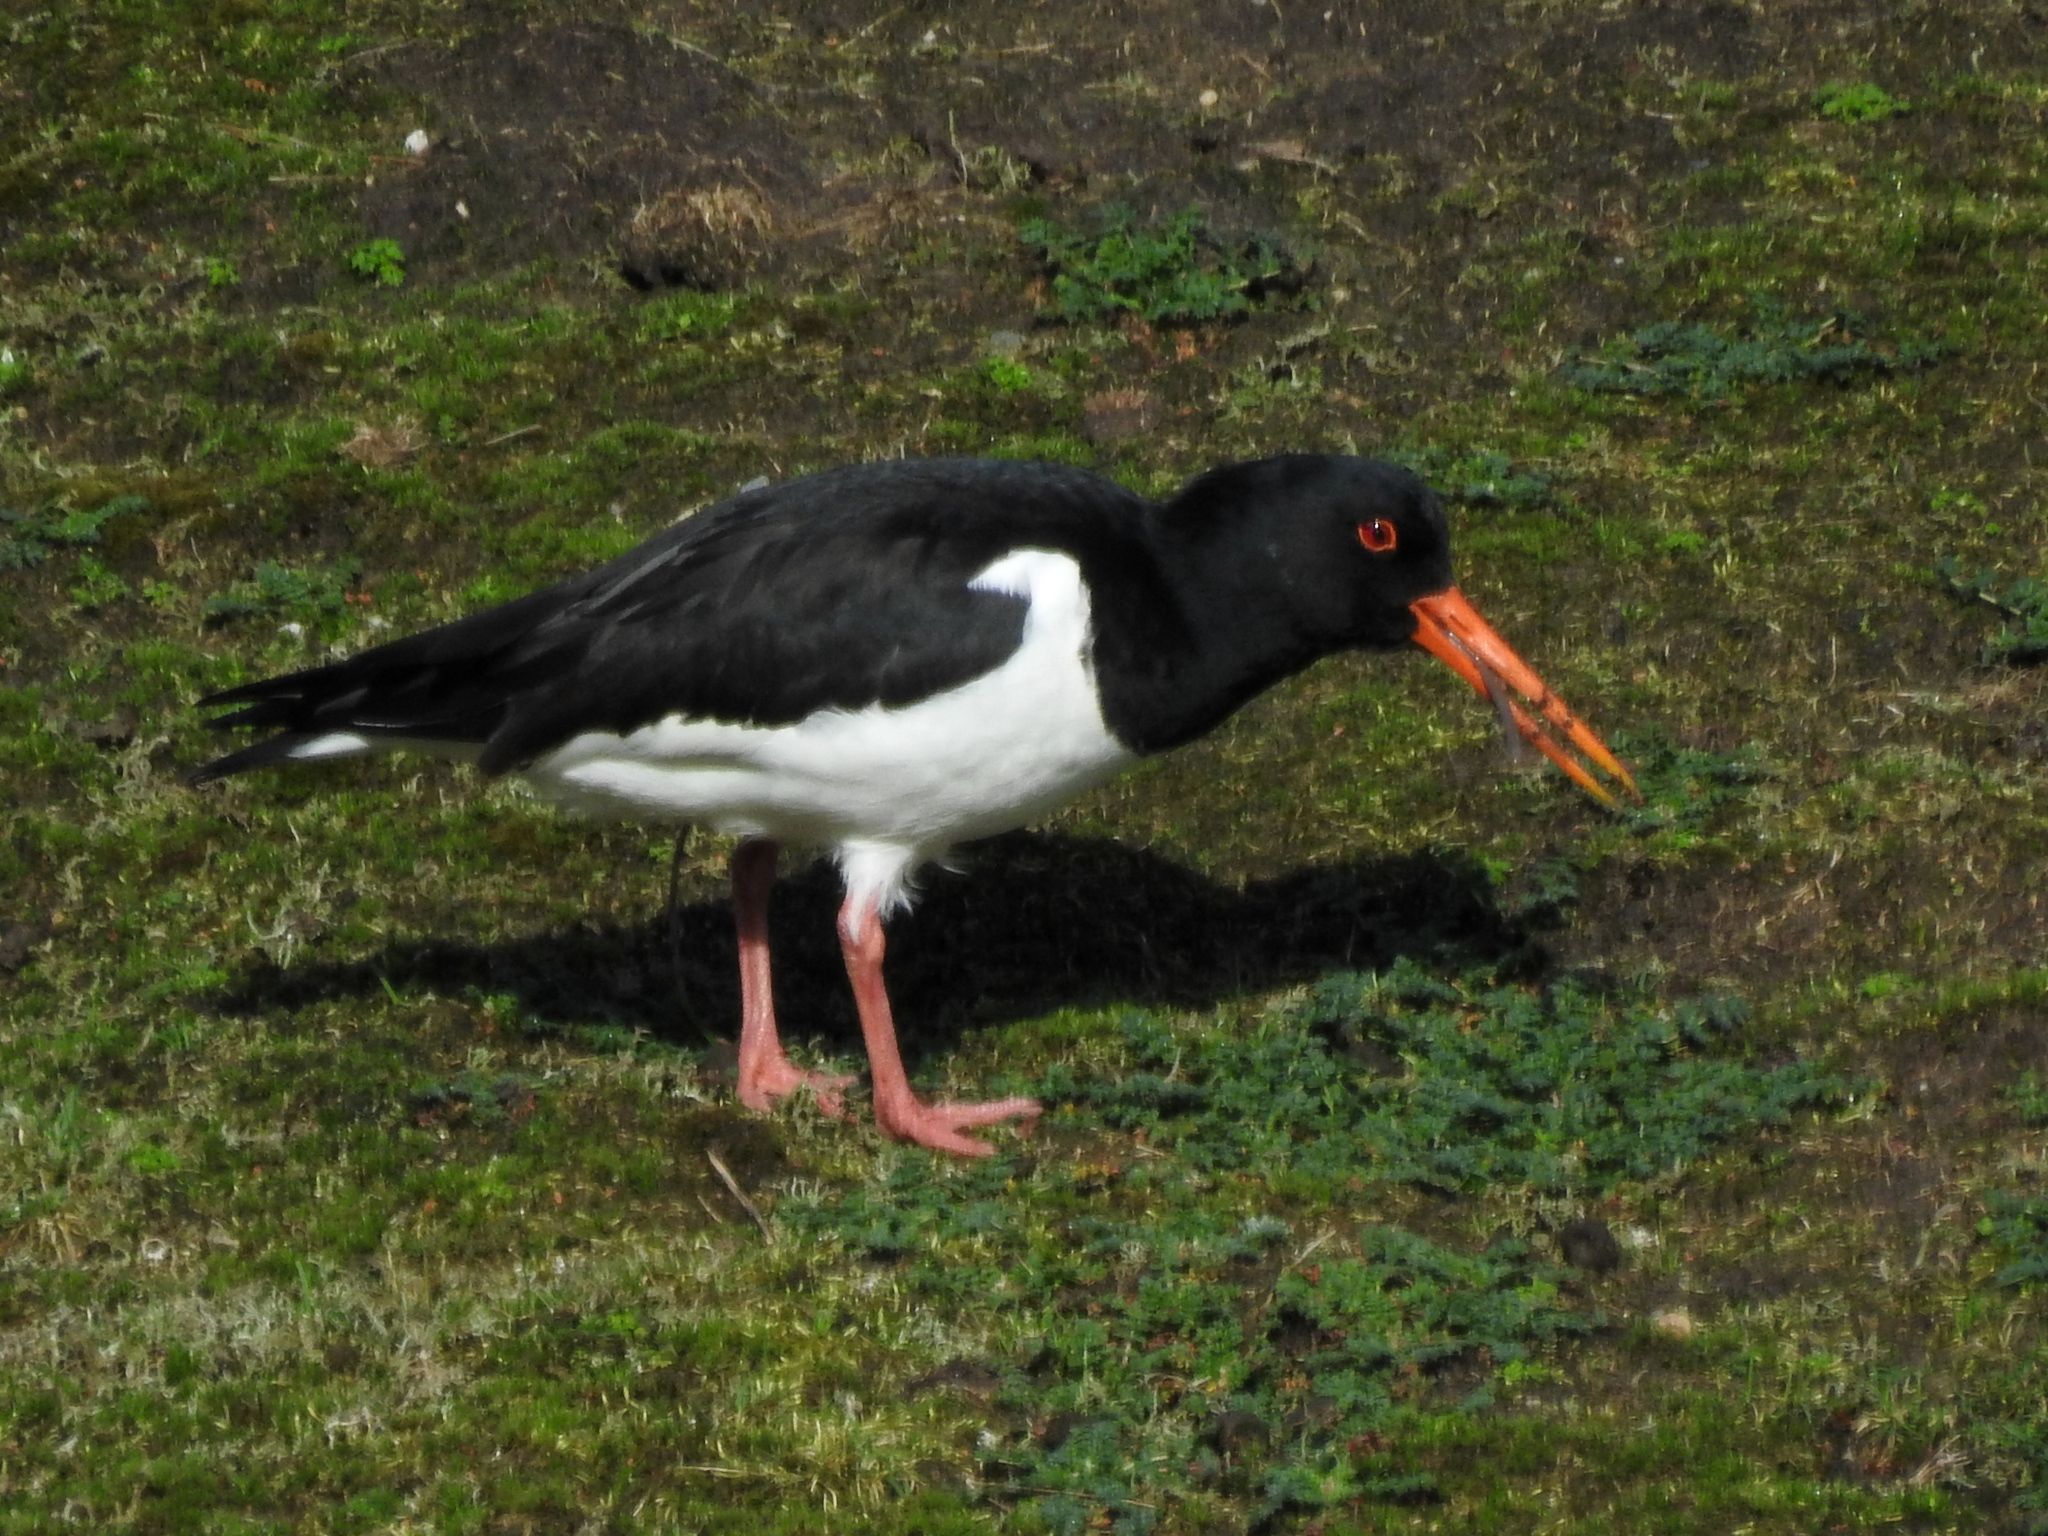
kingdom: Animalia
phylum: Chordata
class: Aves
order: Charadriiformes
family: Haematopodidae
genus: Haematopus
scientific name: Haematopus ostralegus
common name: Eurasian oystercatcher
